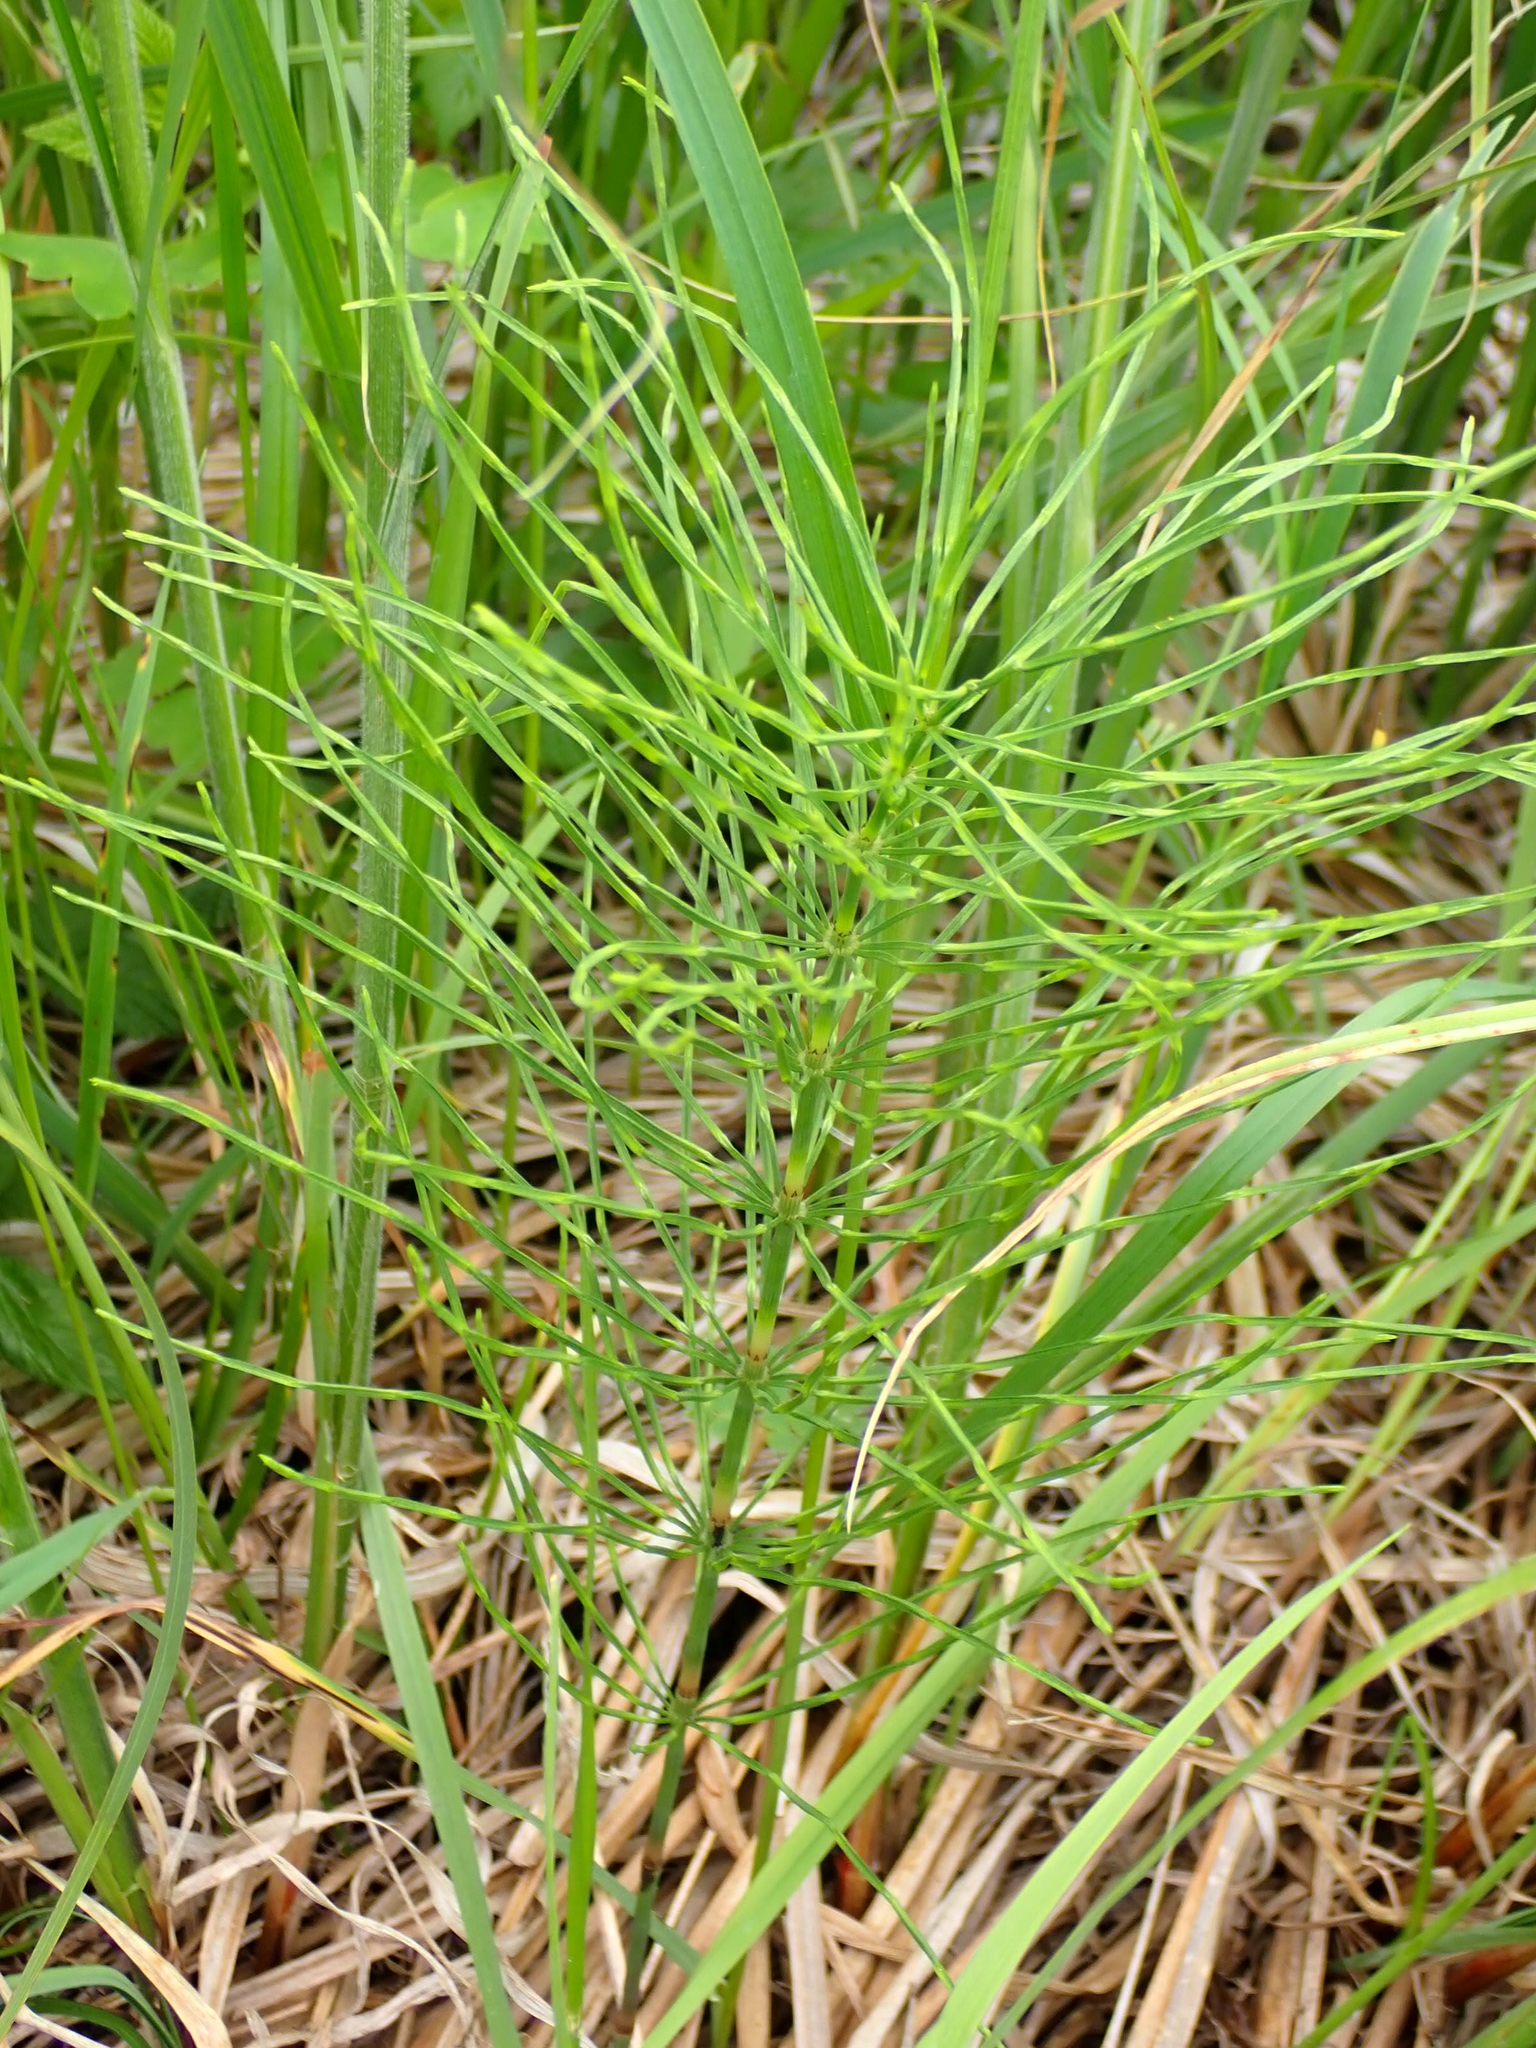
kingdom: Plantae
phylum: Tracheophyta
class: Polypodiopsida
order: Equisetales
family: Equisetaceae
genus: Equisetum
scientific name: Equisetum arvense
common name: Field horsetail
